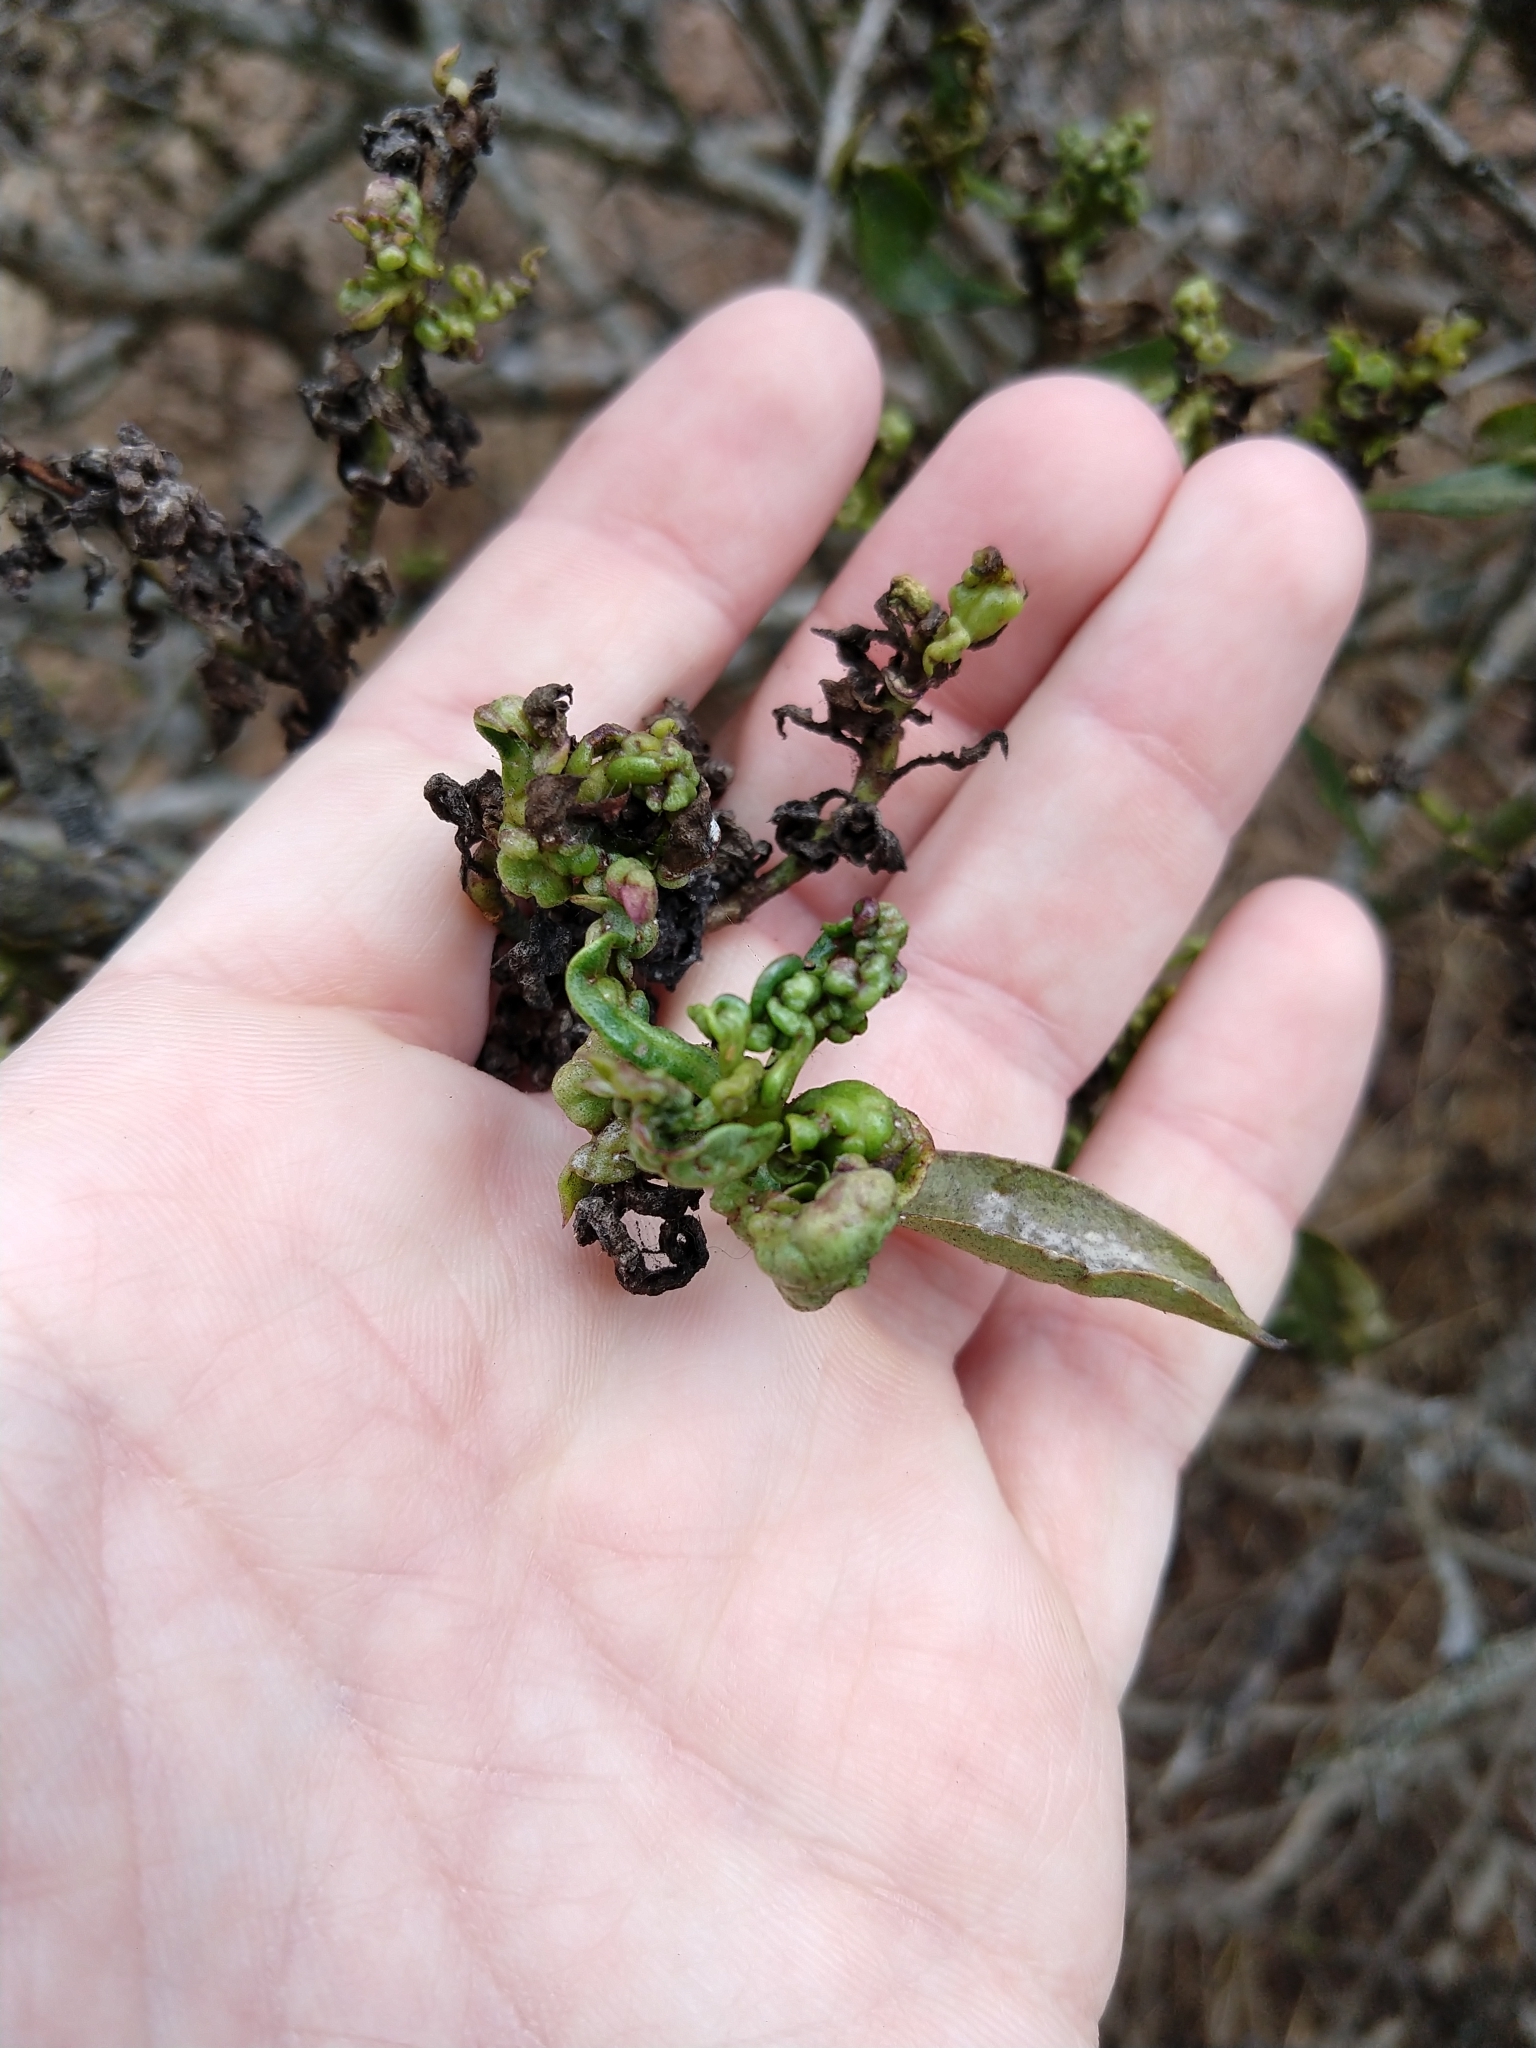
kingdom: Animalia
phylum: Arthropoda
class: Insecta
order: Thysanoptera
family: Phlaeothripidae
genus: Klambothrips
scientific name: Klambothrips myopori
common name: Myoporum thrips
